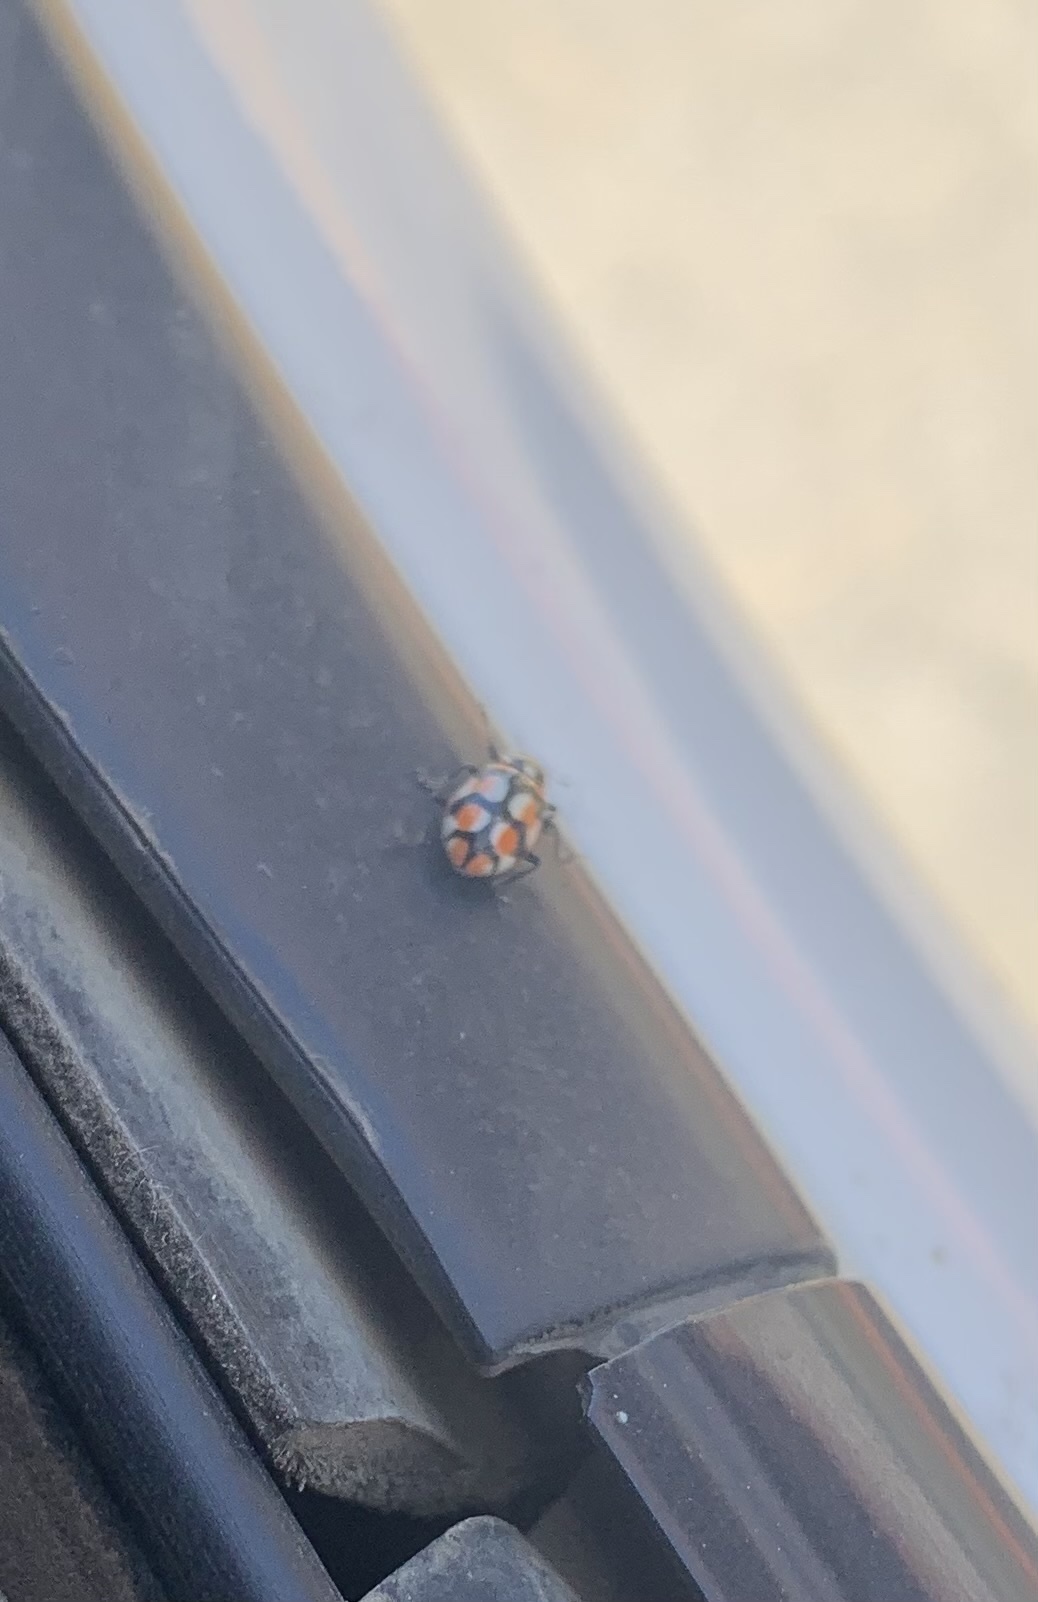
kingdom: Animalia
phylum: Arthropoda
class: Insecta
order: Coleoptera
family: Coccinellidae
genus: Eriopis
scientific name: Eriopis chilensis
